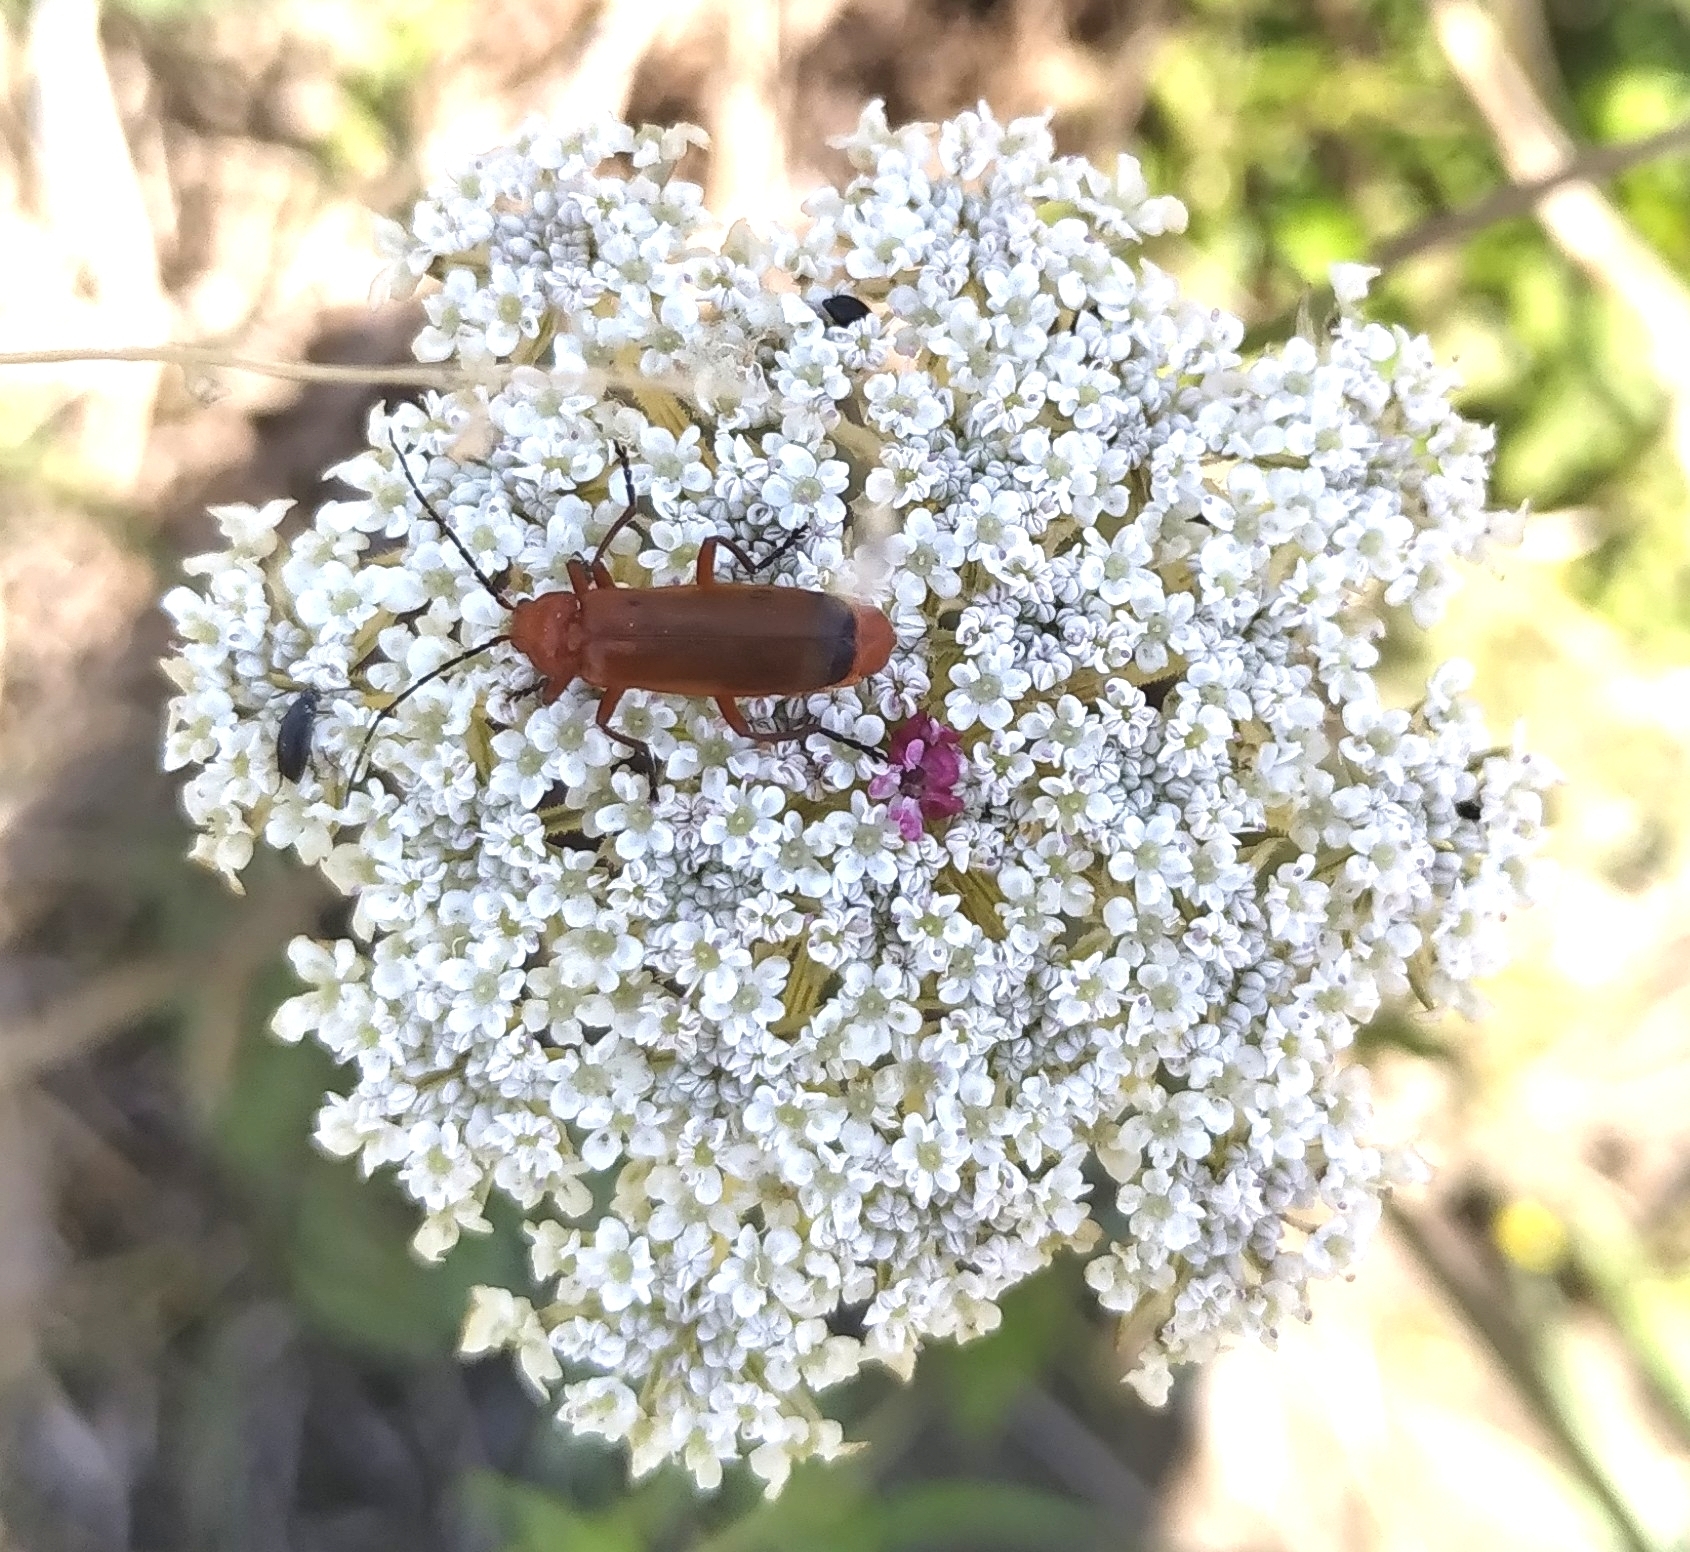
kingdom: Animalia
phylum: Arthropoda
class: Insecta
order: Coleoptera
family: Cantharidae
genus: Rhagonycha
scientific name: Rhagonycha fulva
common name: Common red soldier beetle
